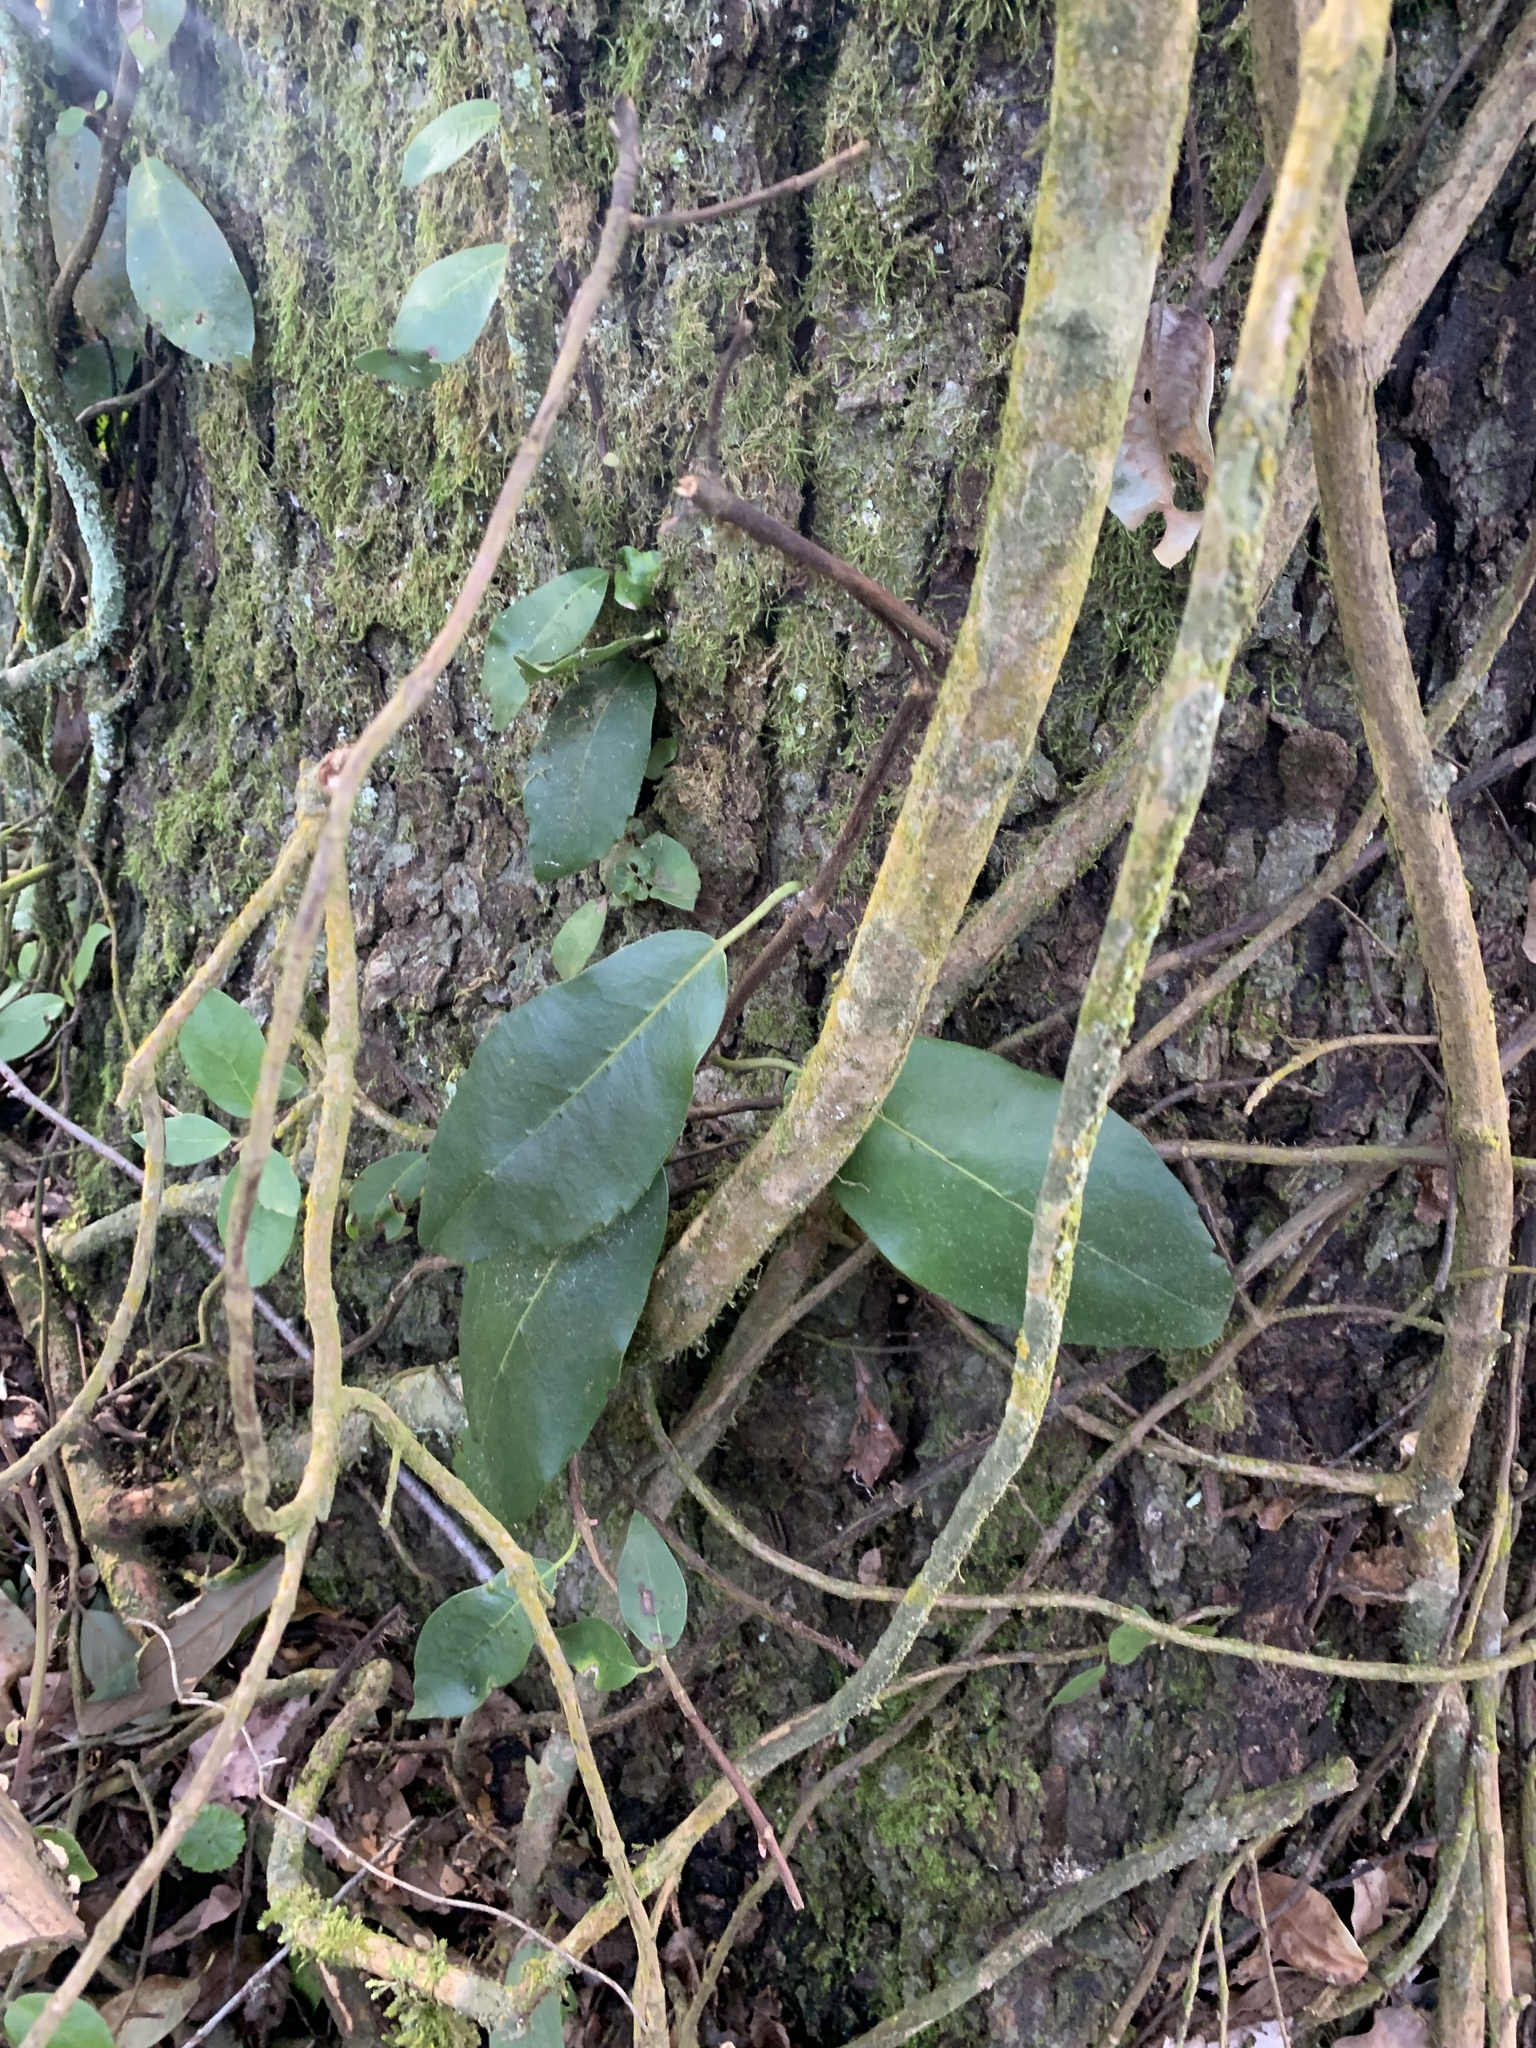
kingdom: Plantae
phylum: Tracheophyta
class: Magnoliopsida
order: Cornales
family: Hydrangeaceae
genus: Hydrangea
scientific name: Hydrangea serratifolia
